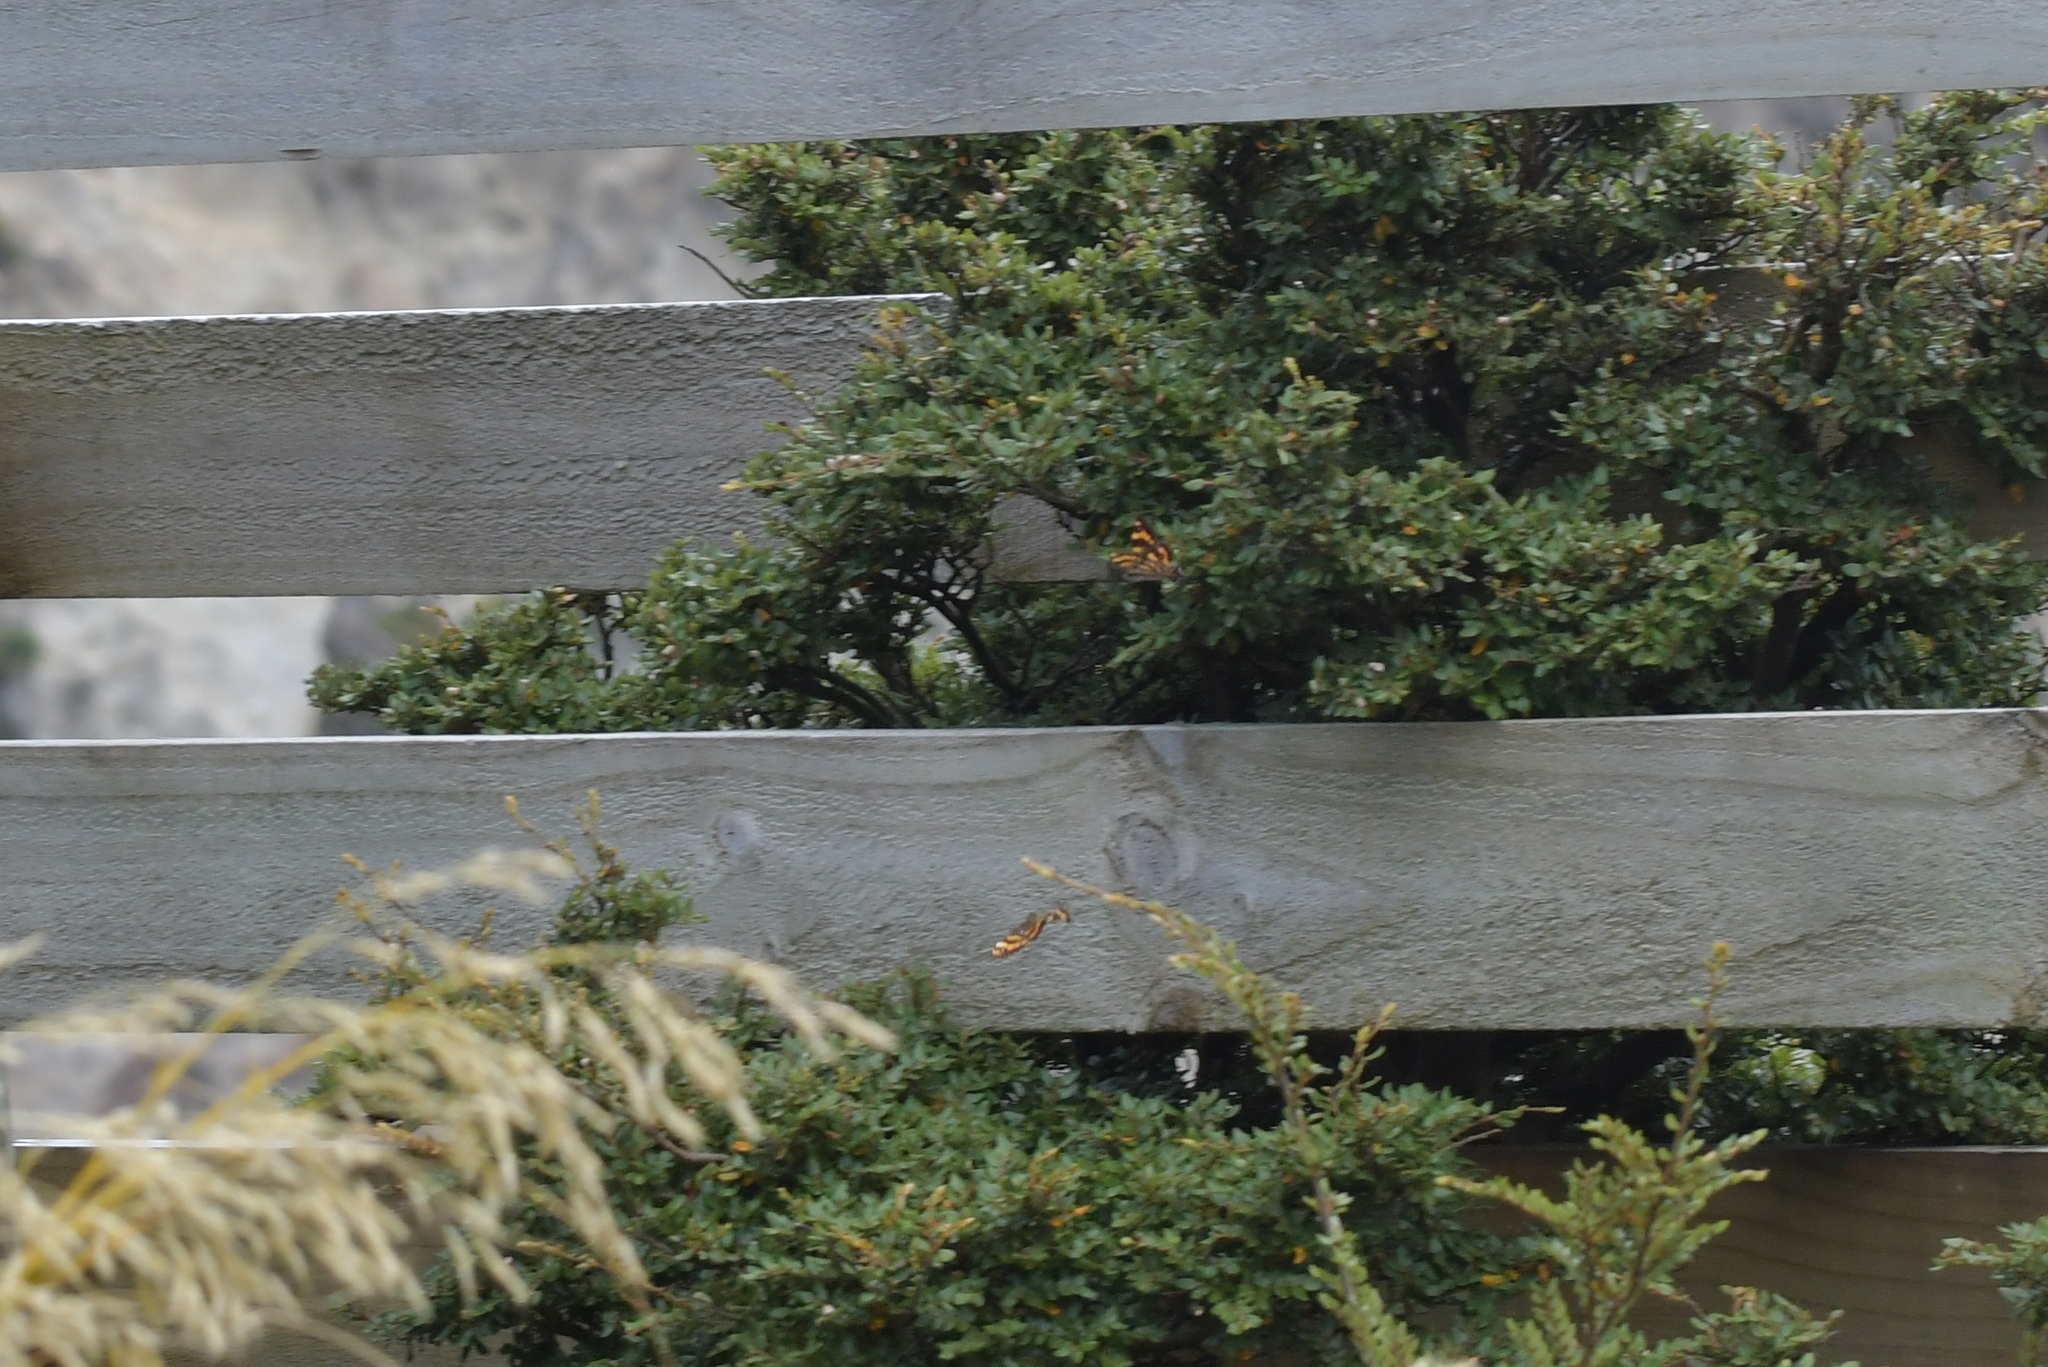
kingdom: Animalia
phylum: Arthropoda
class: Insecta
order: Lepidoptera
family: Nymphalidae
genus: Dodonidia
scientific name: Dodonidia helmsii
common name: Helm's butterfly
